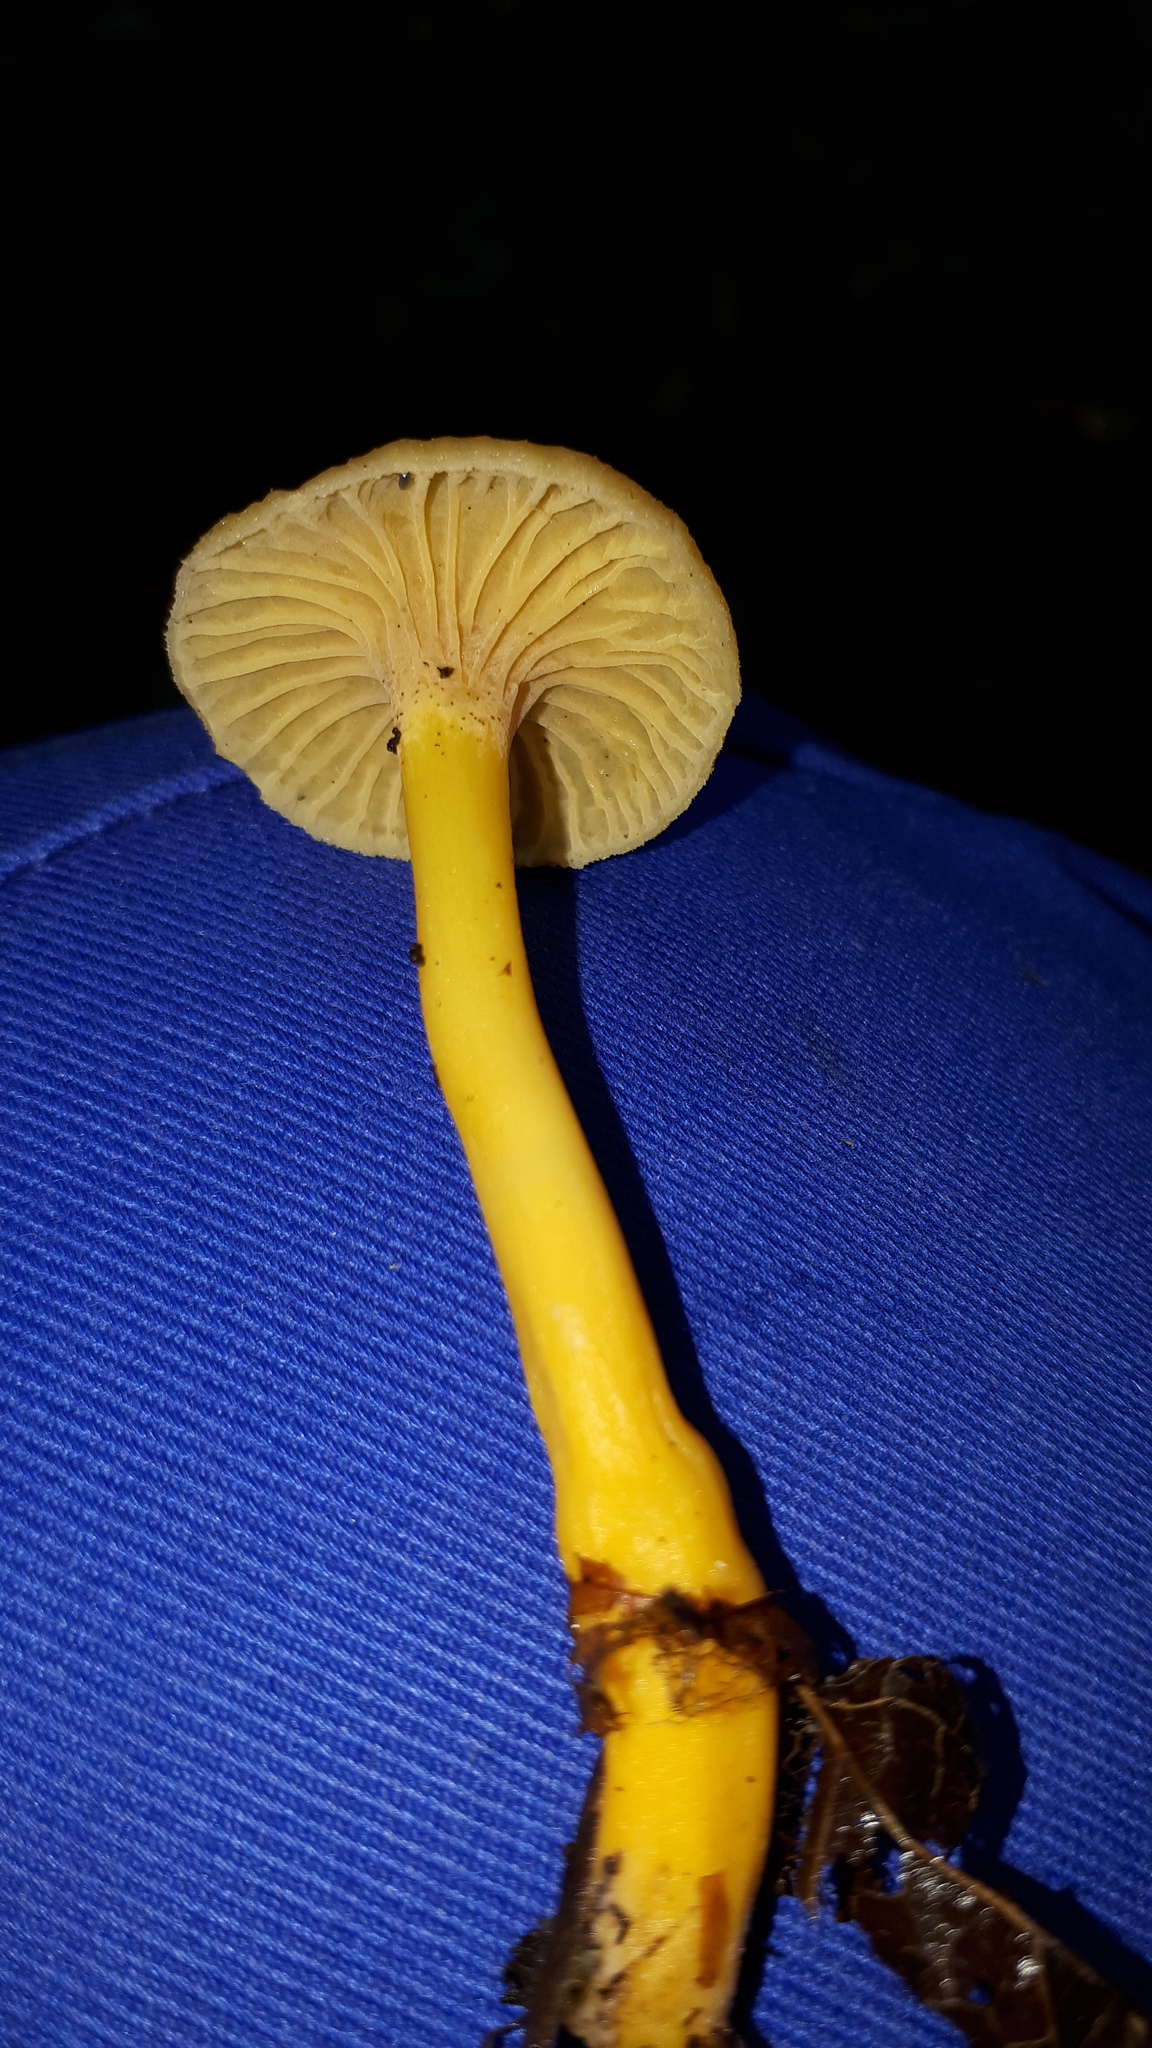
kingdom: Fungi
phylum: Basidiomycota
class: Agaricomycetes
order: Cantharellales
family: Hydnaceae
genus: Craterellus
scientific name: Craterellus tubaeformis
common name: Yellowfoot
